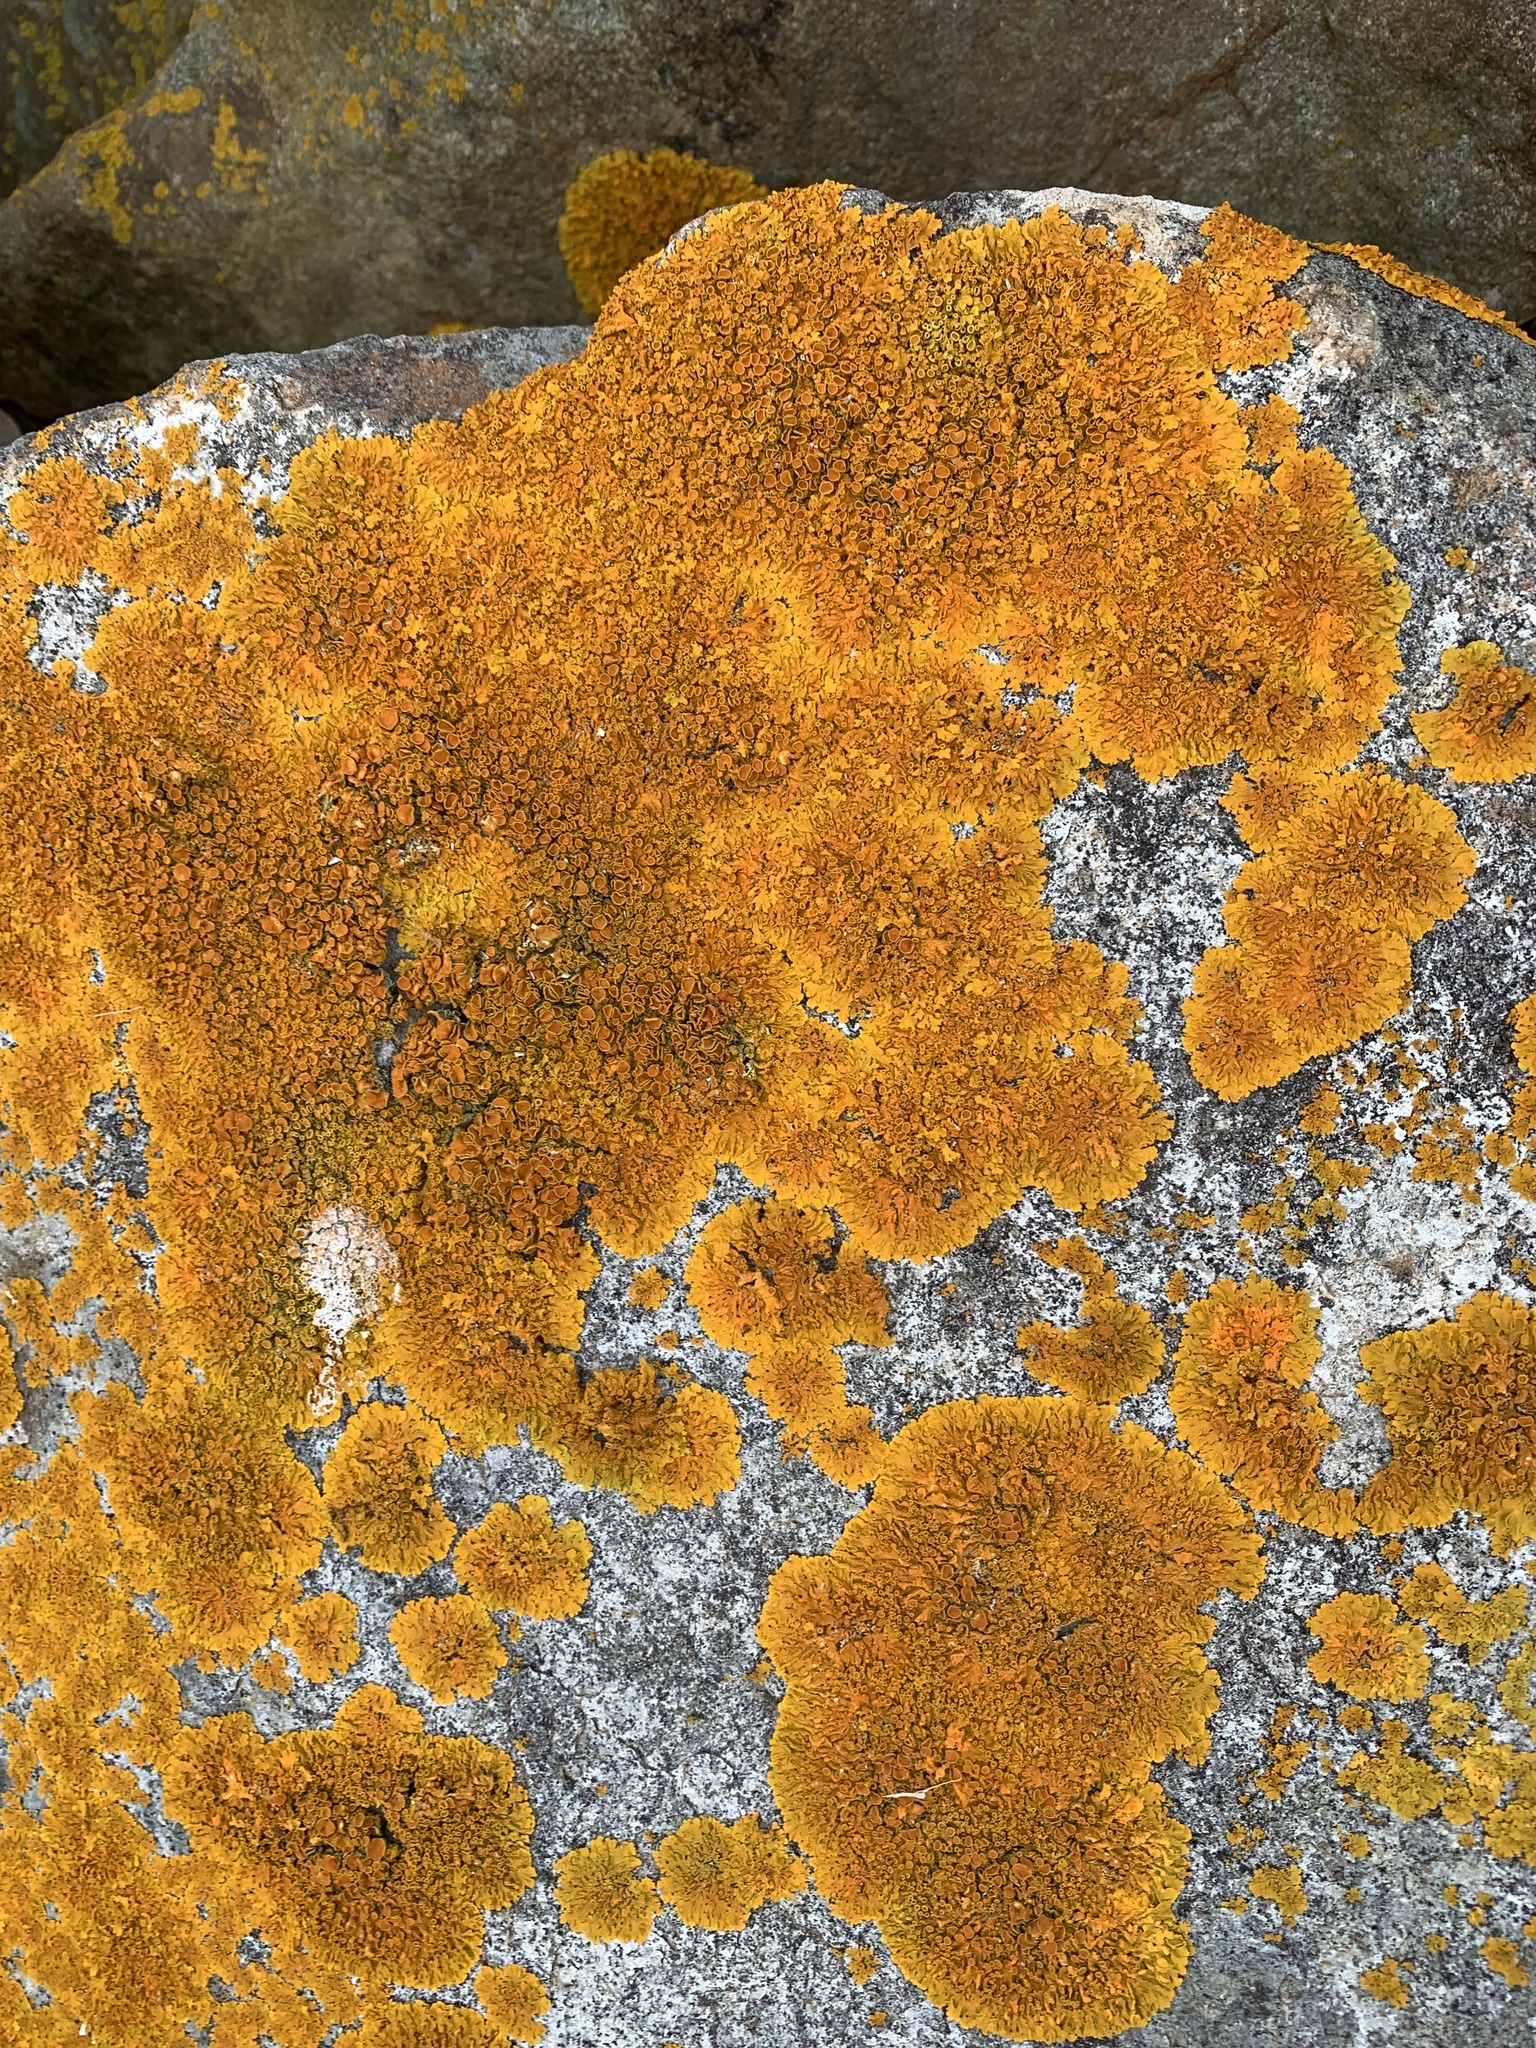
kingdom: Fungi
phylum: Ascomycota
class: Lecanoromycetes
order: Teloschistales
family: Teloschistaceae
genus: Xanthoria
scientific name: Xanthoria parietina
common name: Common orange lichen
